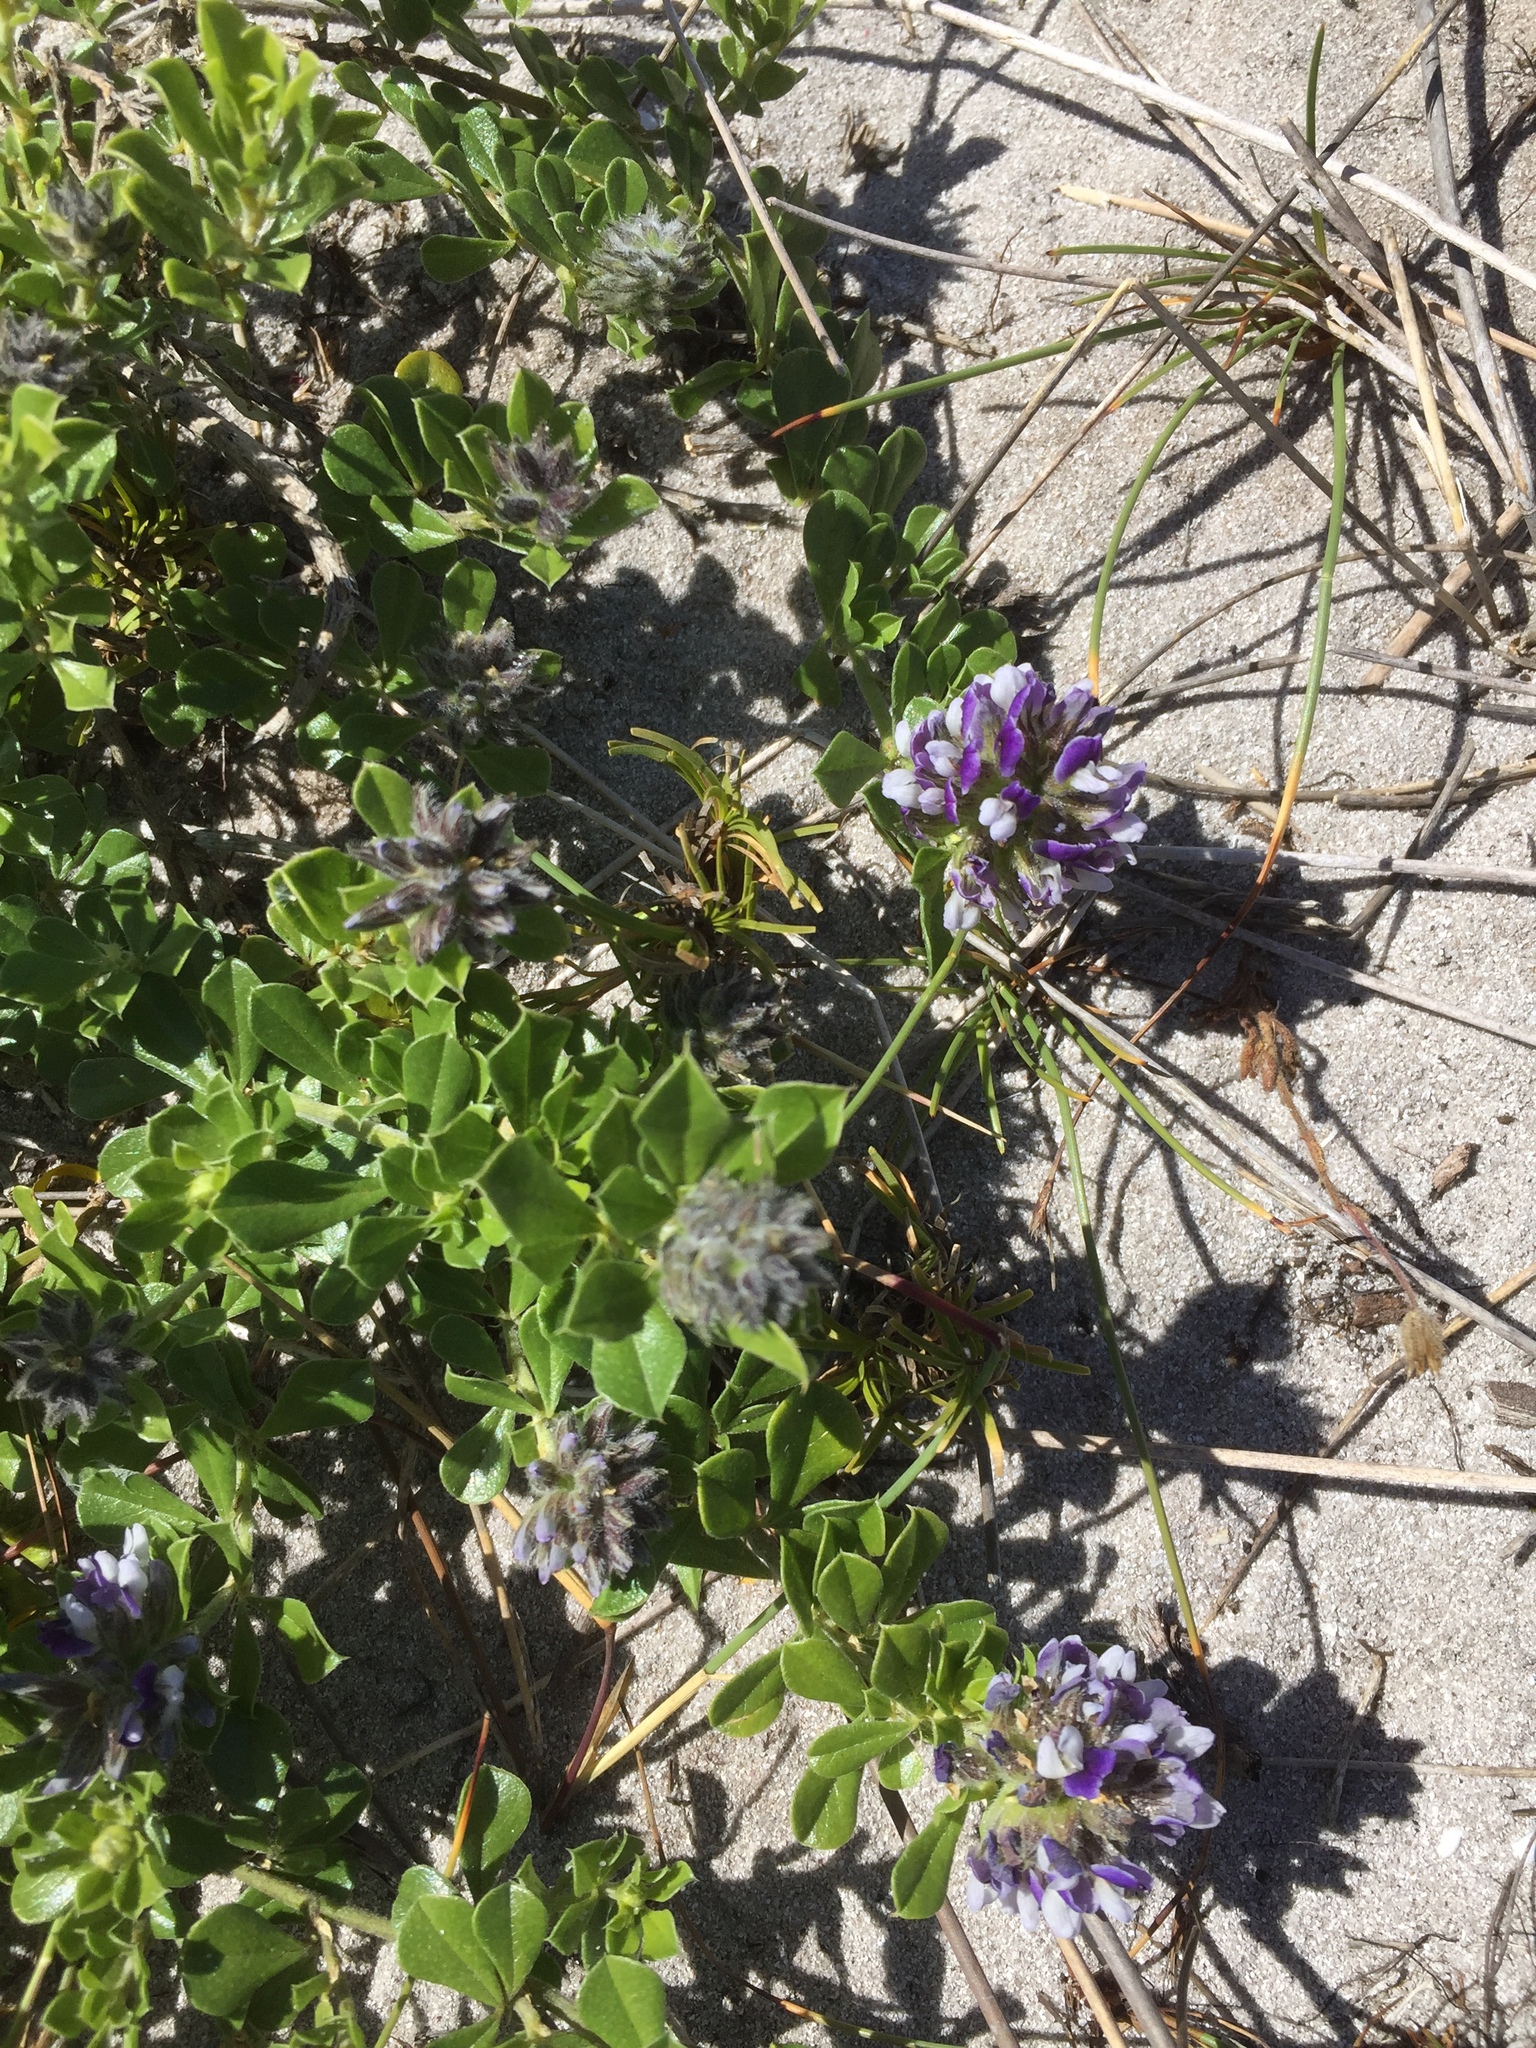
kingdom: Plantae
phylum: Tracheophyta
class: Magnoliopsida
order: Fabales
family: Fabaceae
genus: Psoralea
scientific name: Psoralea bracteolata
